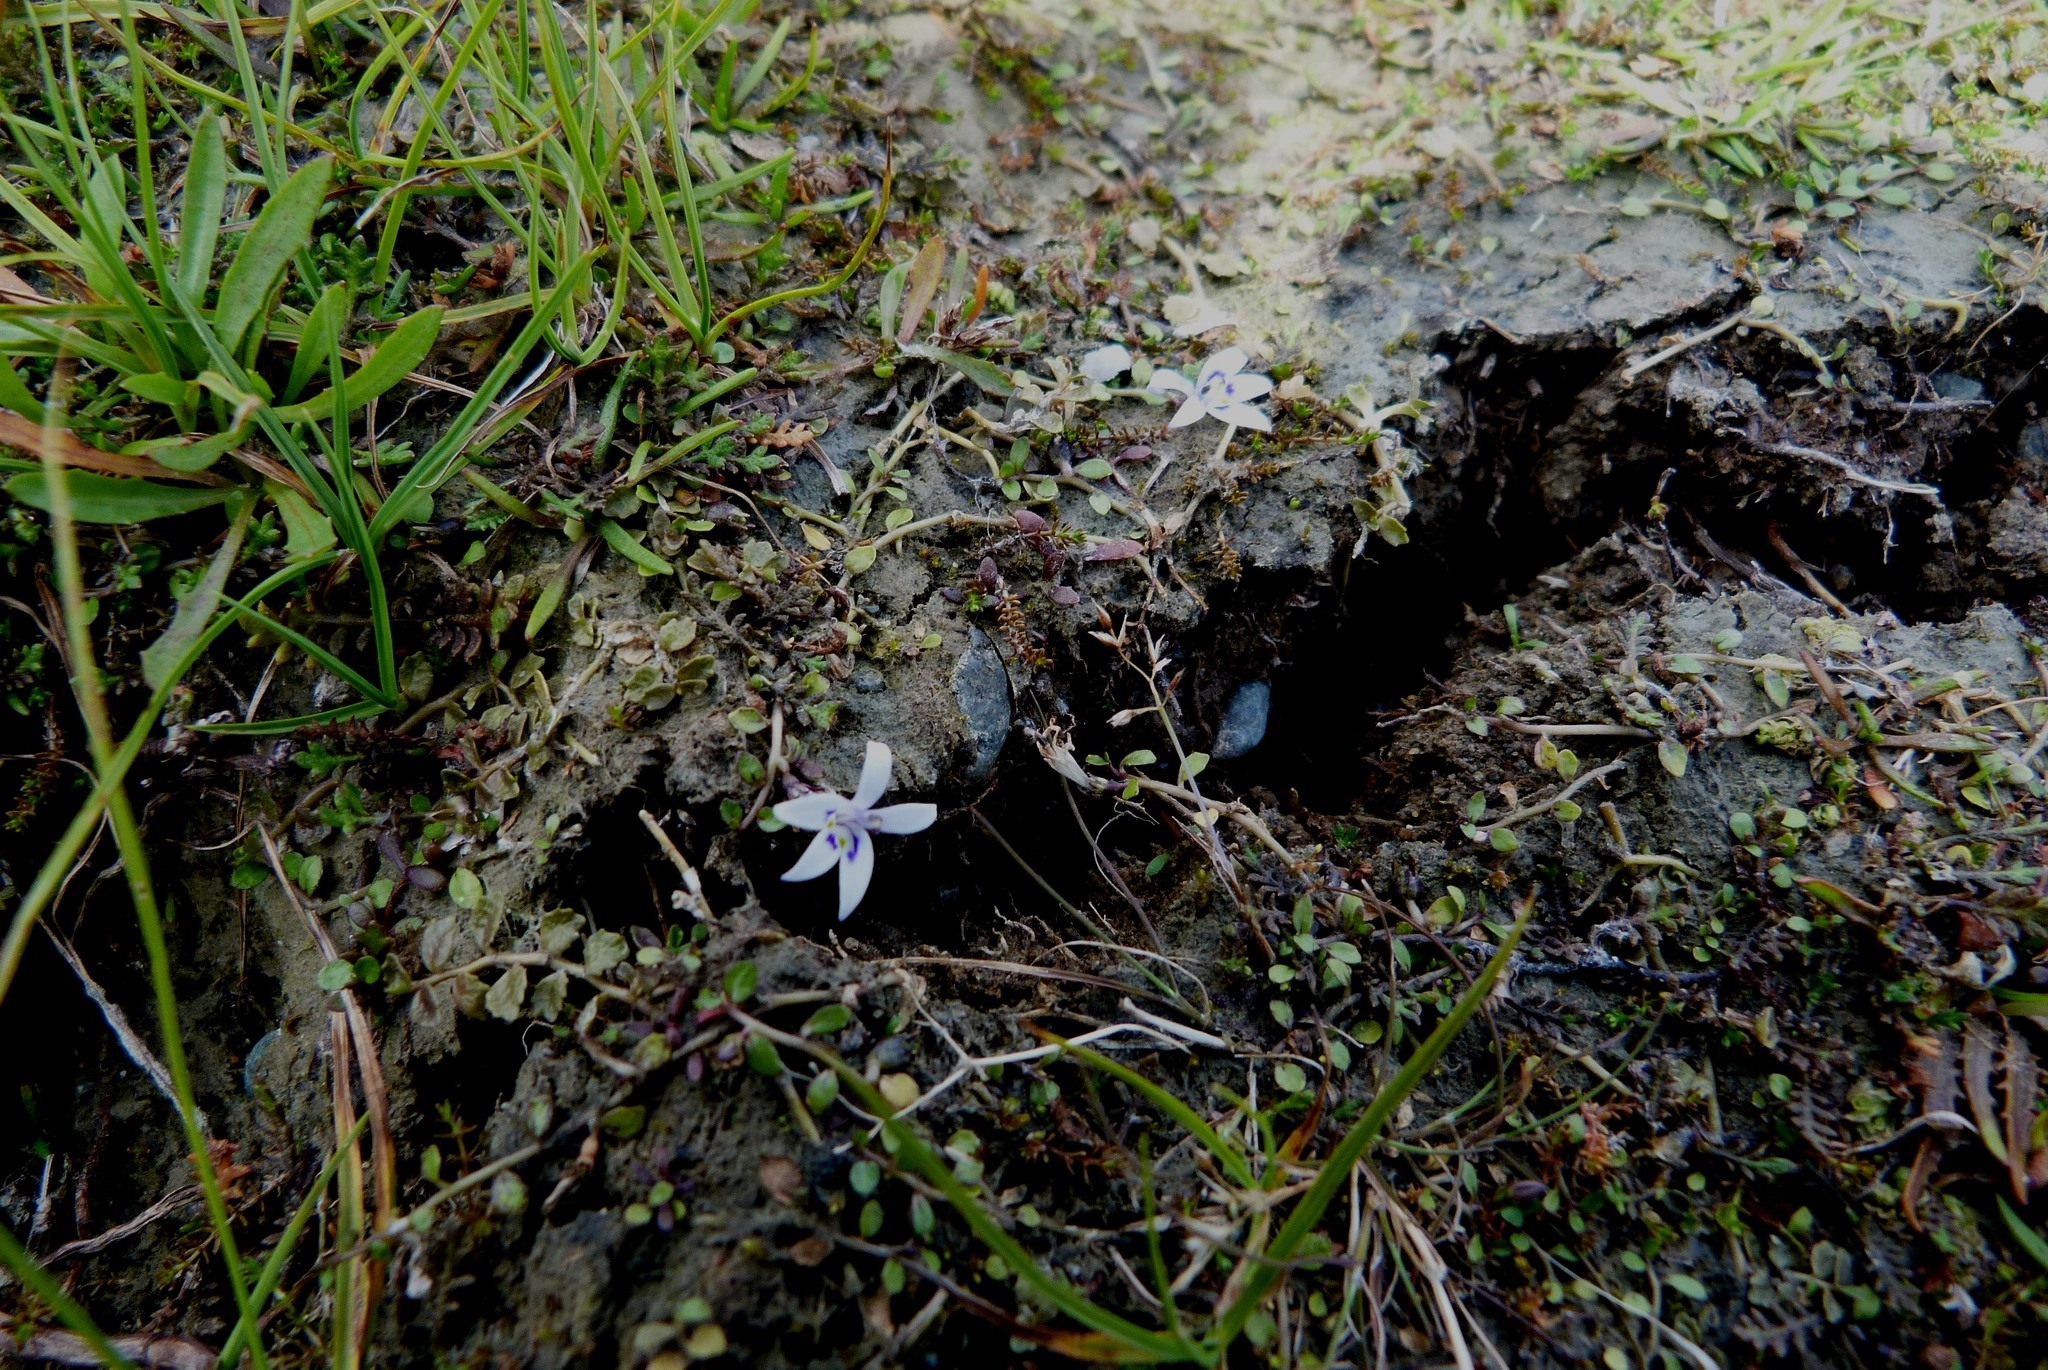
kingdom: Plantae
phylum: Tracheophyta
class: Magnoliopsida
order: Asterales
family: Campanulaceae
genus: Isotoma
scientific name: Isotoma rivalis
